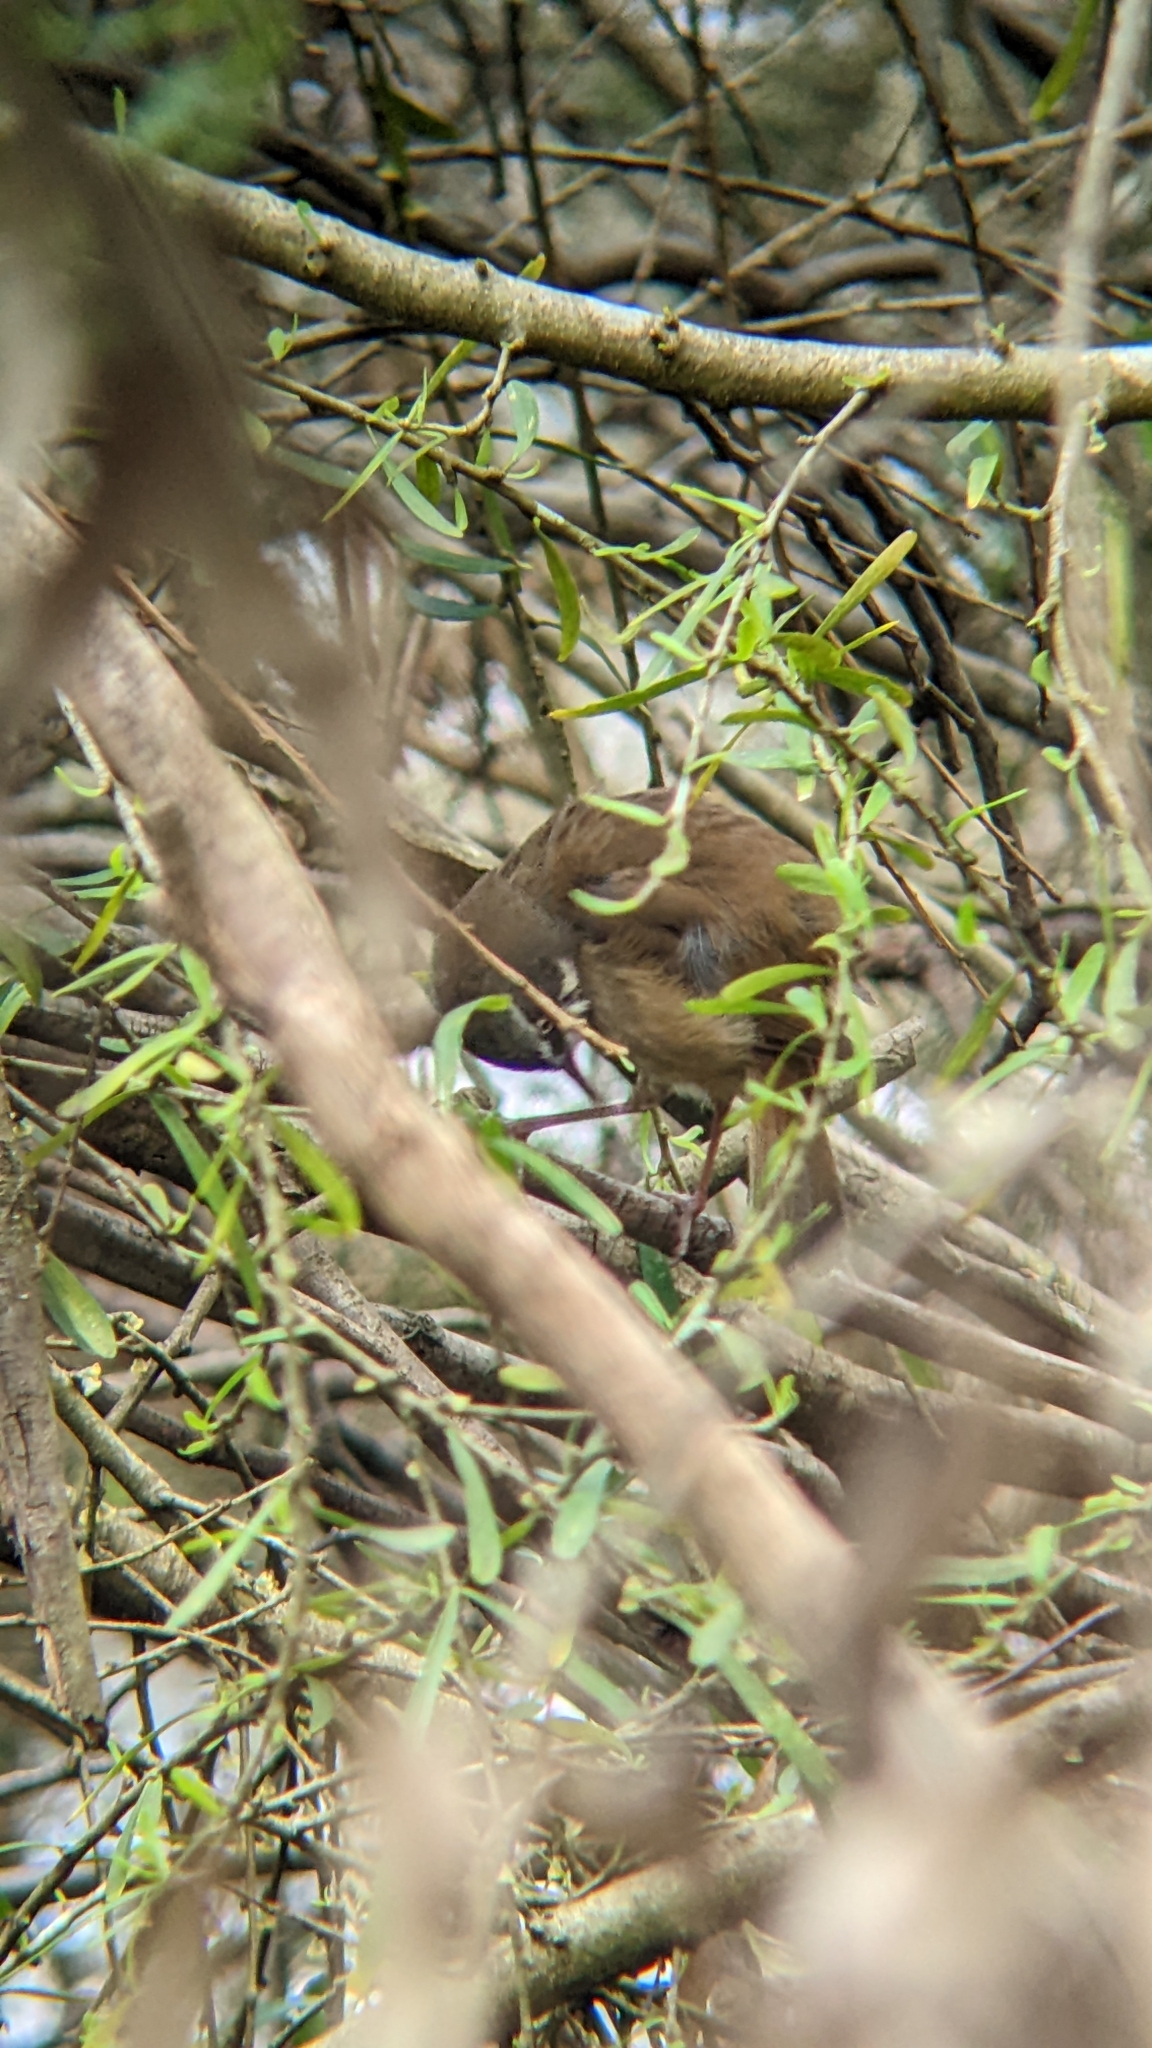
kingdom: Animalia
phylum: Chordata
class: Aves
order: Passeriformes
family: Acanthizidae
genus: Sericornis
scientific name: Sericornis frontalis
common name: White-browed scrubwren
